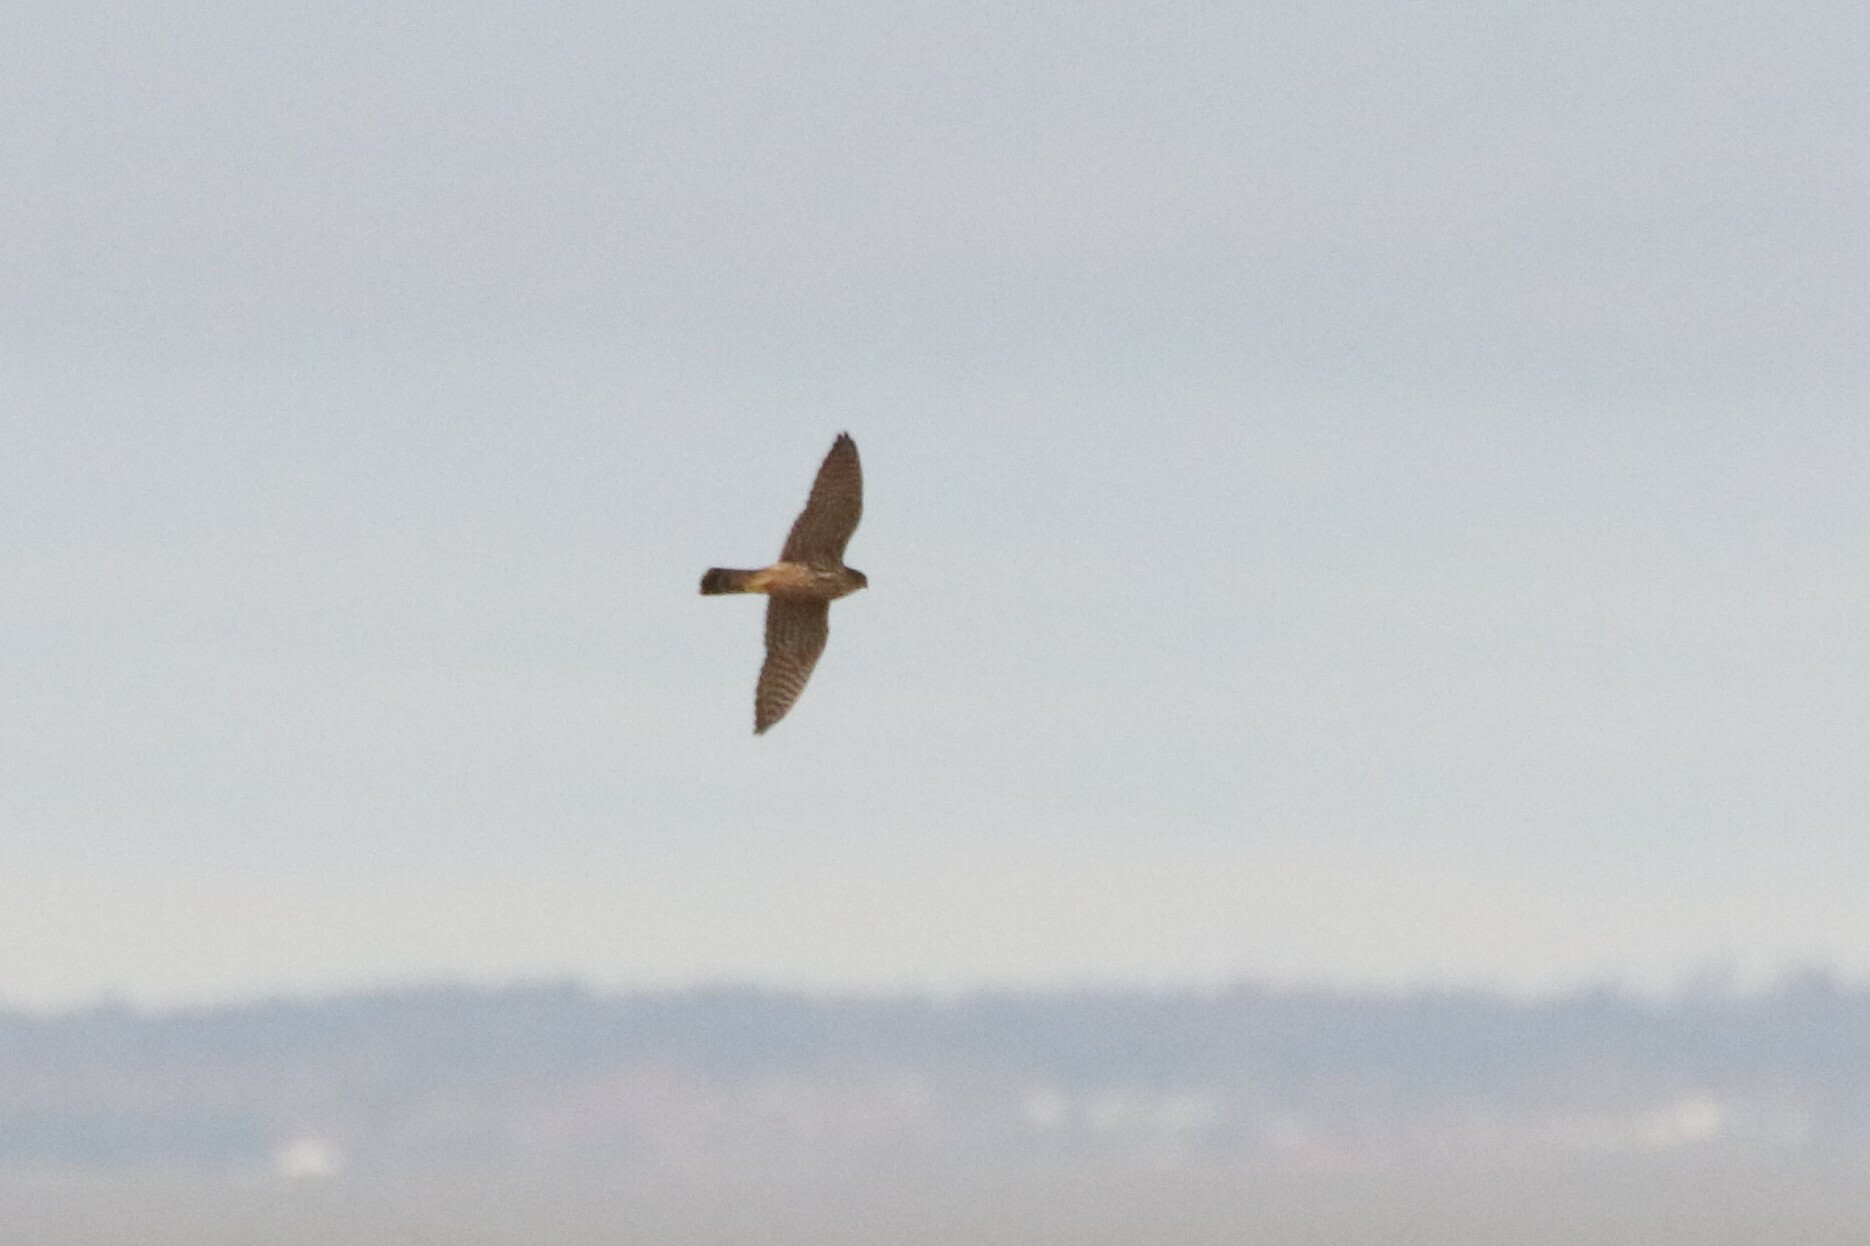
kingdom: Animalia
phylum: Chordata
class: Aves
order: Falconiformes
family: Falconidae
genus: Falco
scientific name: Falco columbarius
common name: Merlin
